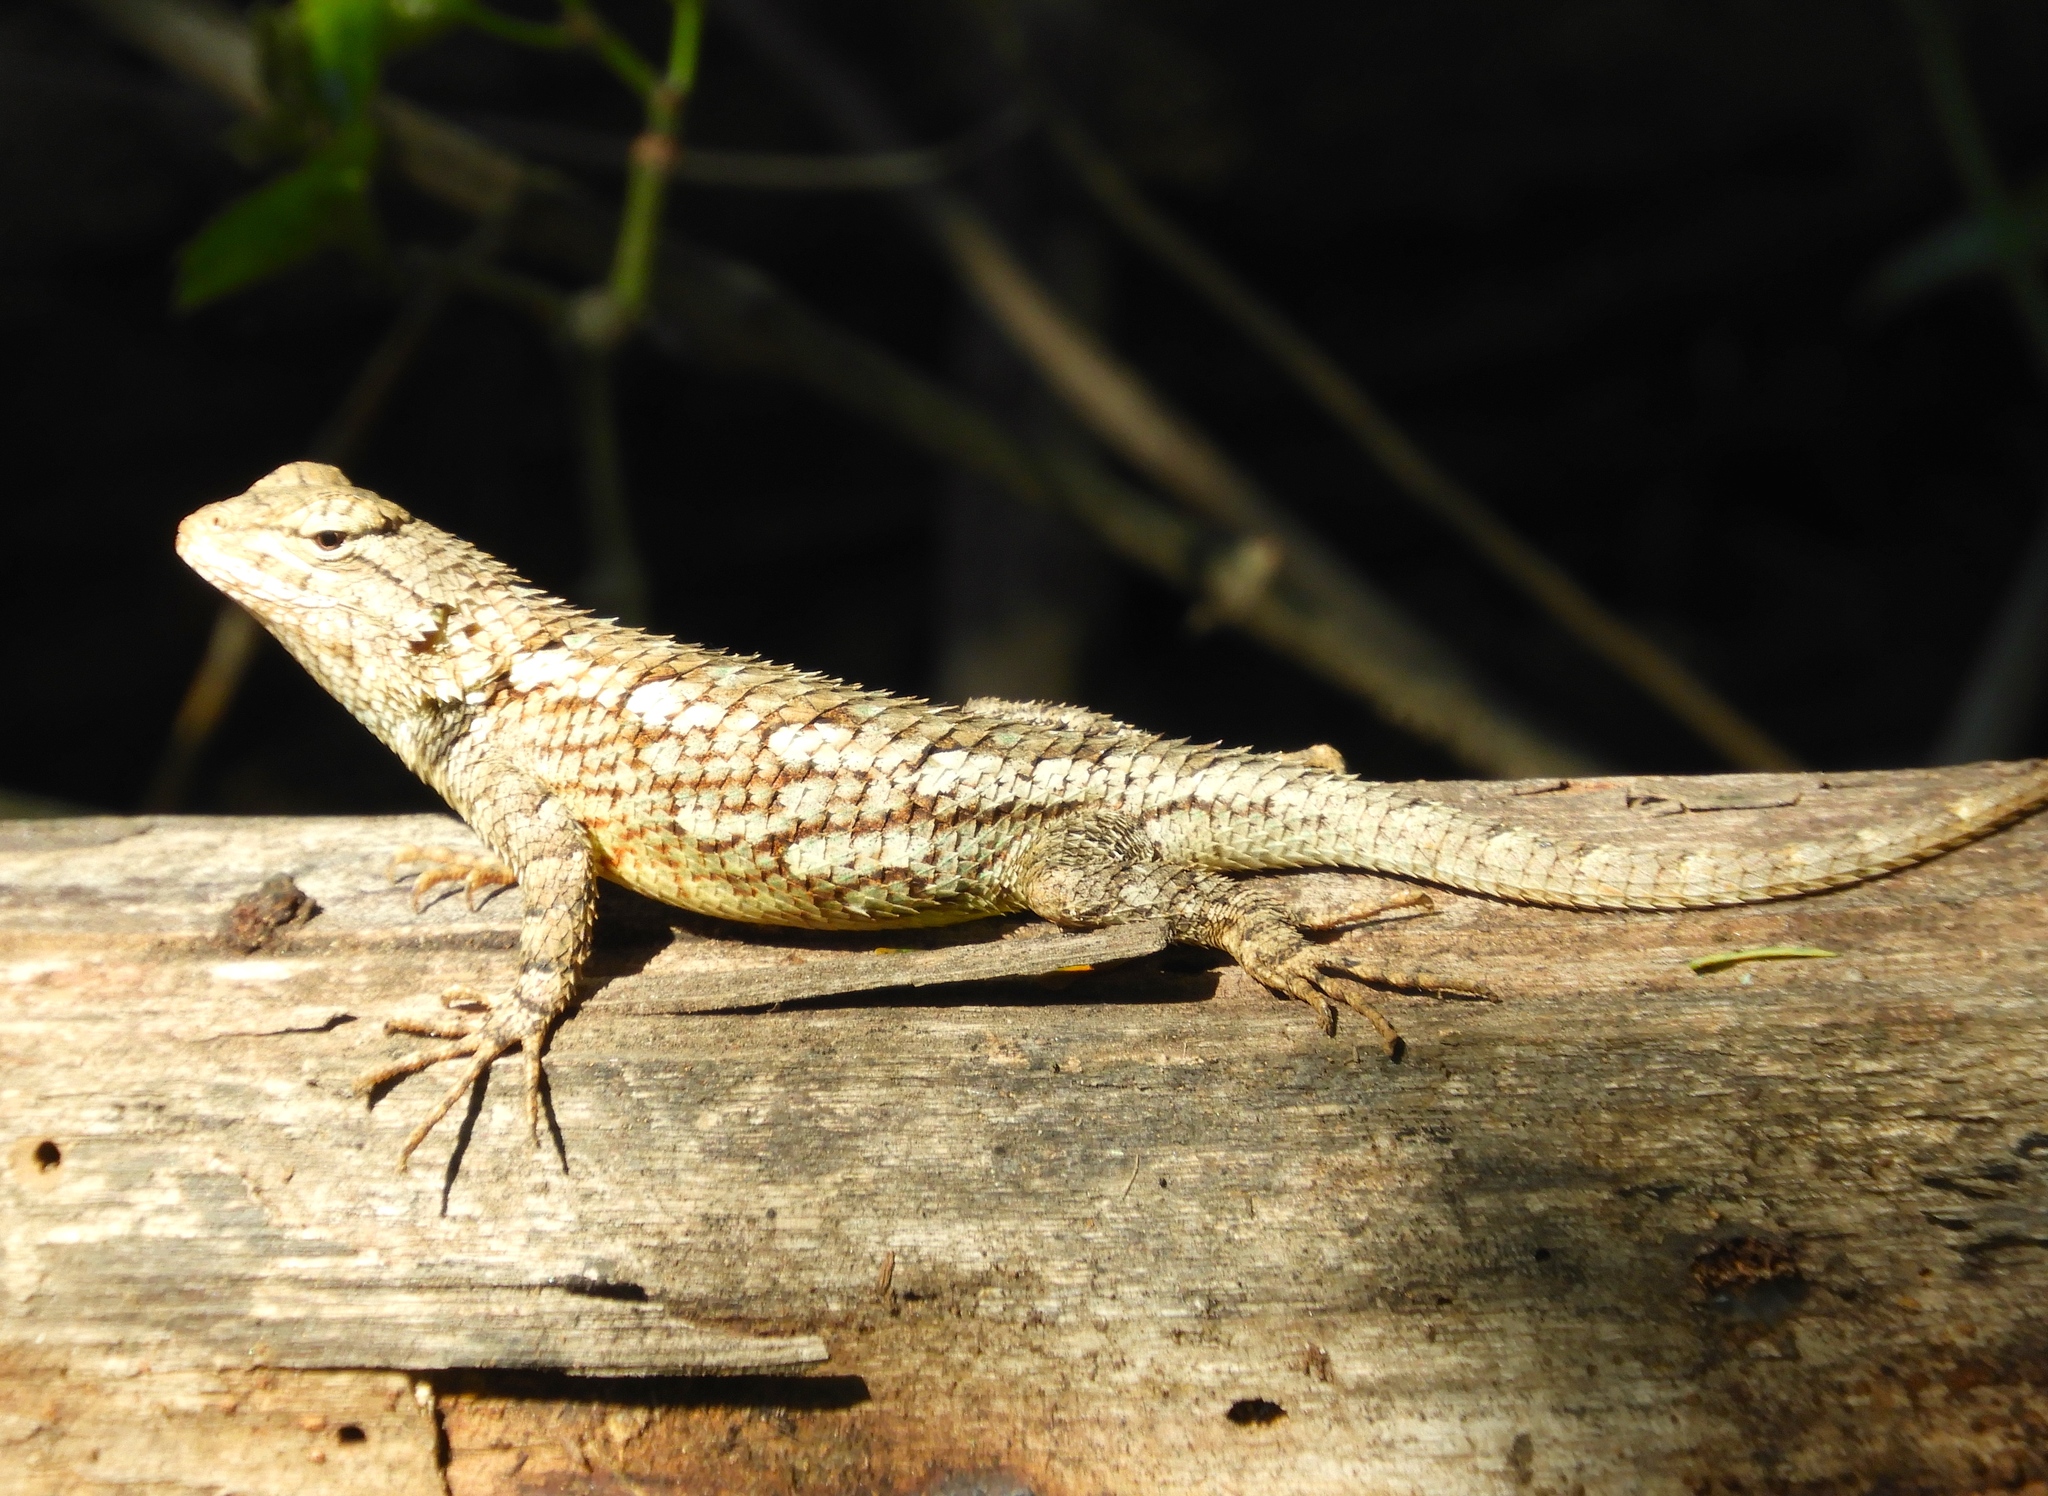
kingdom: Animalia
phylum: Chordata
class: Squamata
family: Phrynosomatidae
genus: Sceloporus
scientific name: Sceloporus clarkii
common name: Clark's spiny lizard
